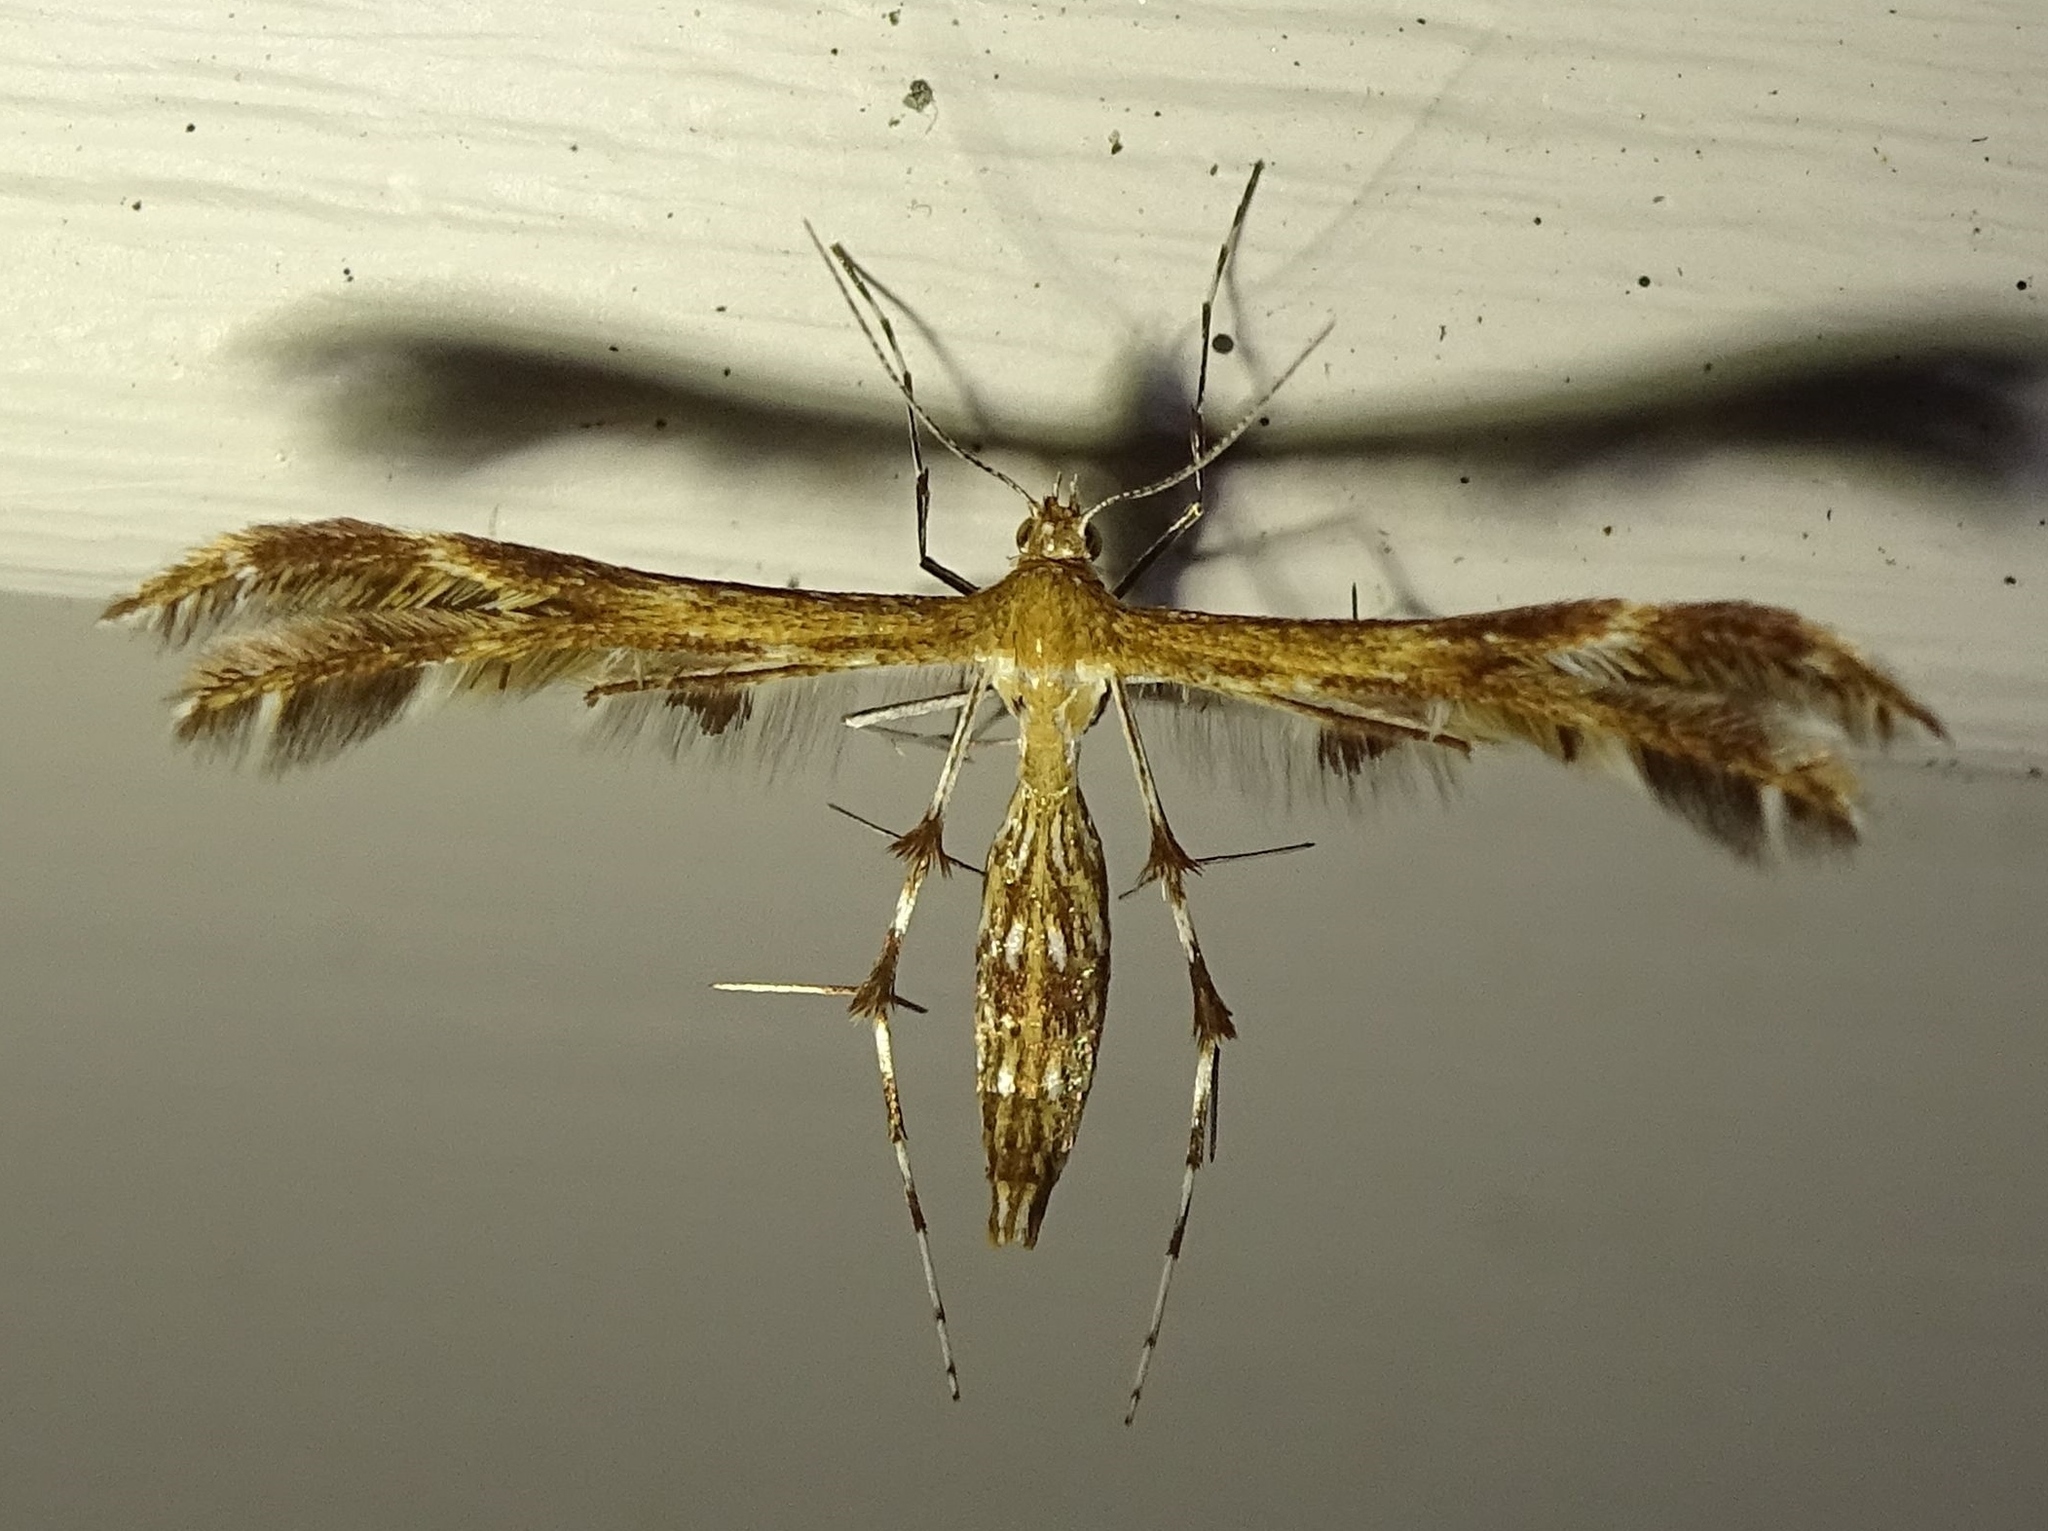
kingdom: Animalia
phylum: Arthropoda
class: Insecta
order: Lepidoptera
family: Pterophoridae
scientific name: Pterophoridae
